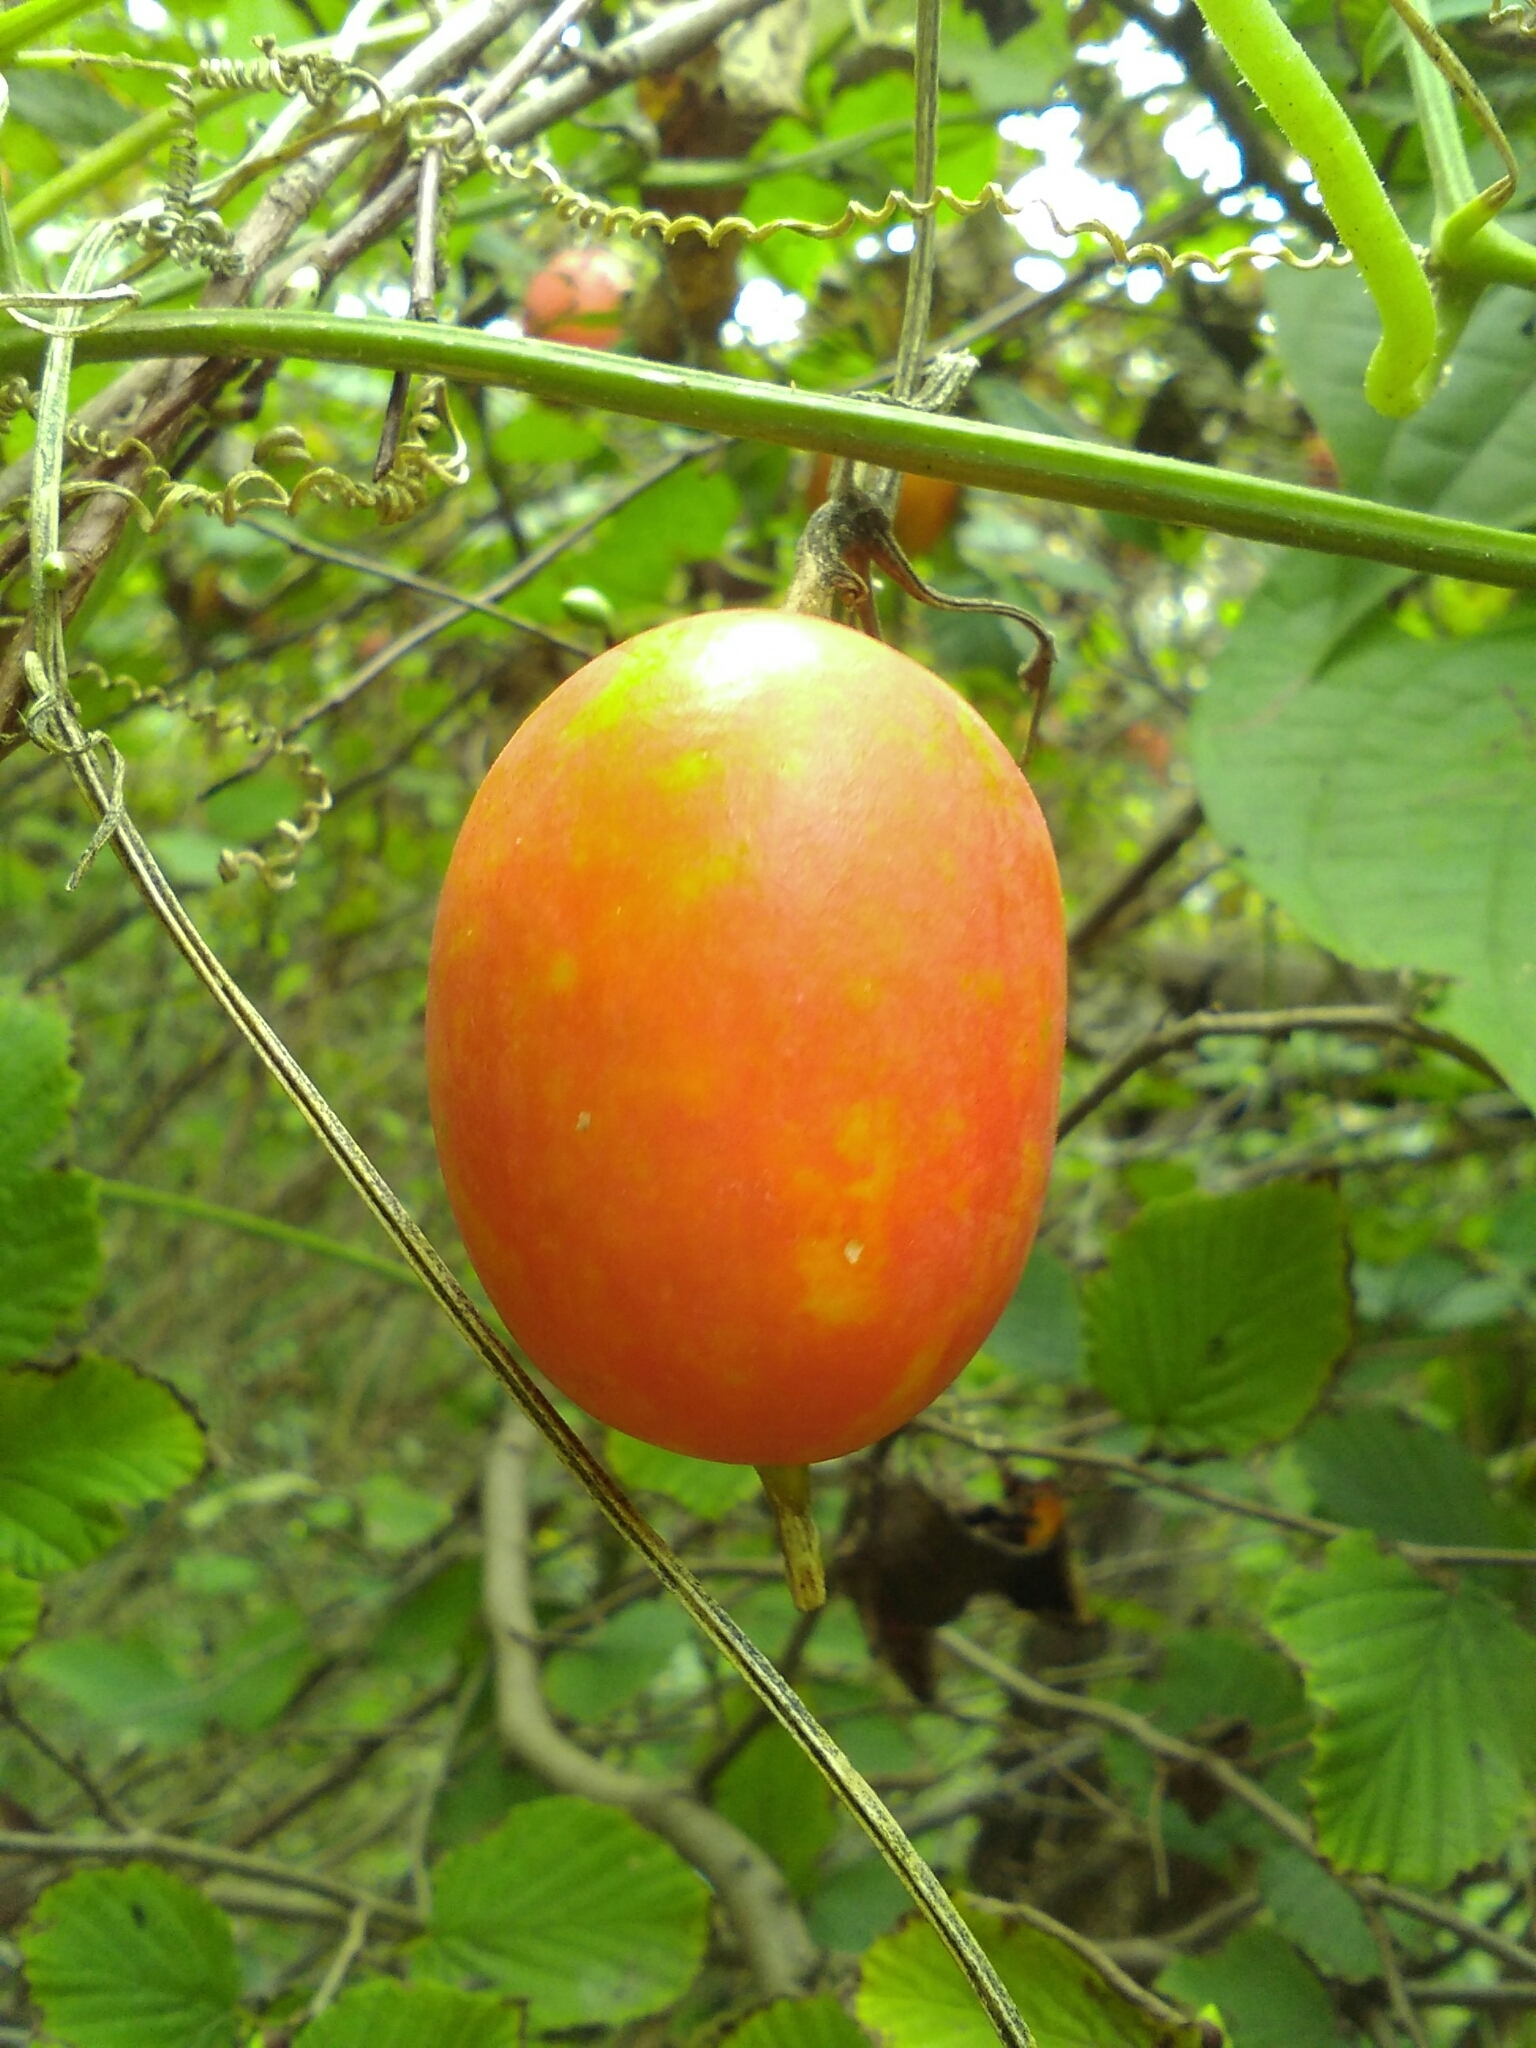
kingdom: Plantae
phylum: Tracheophyta
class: Magnoliopsida
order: Cucurbitales
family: Cucurbitaceae
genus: Trichosanthes
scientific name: Trichosanthes cucumeroides
